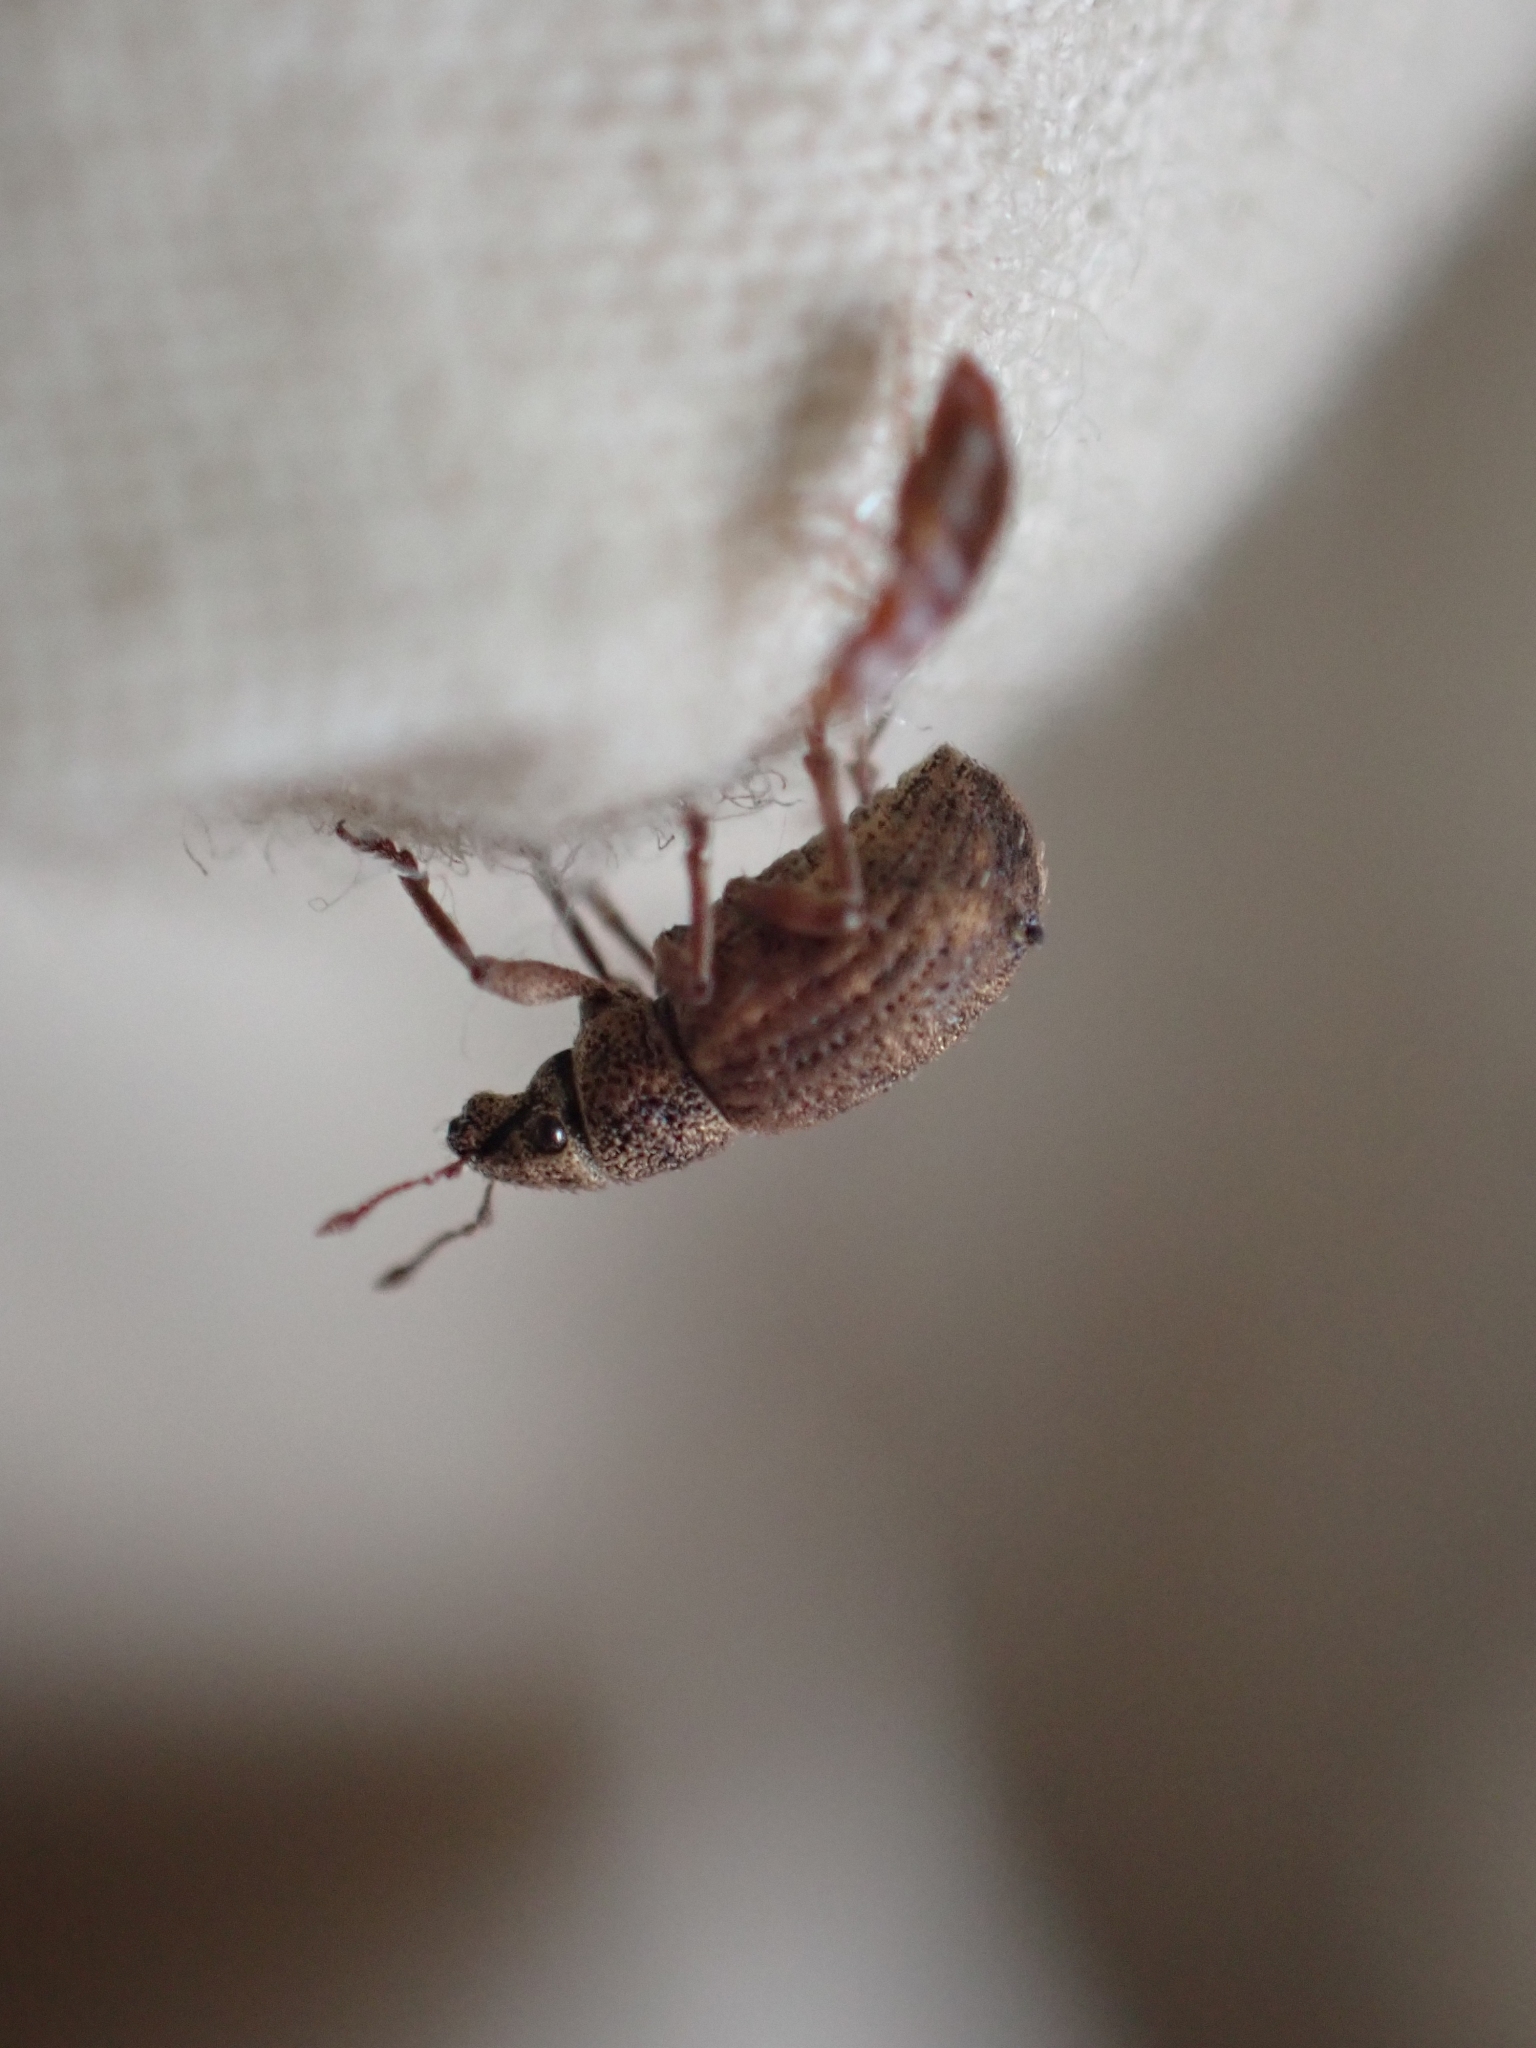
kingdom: Animalia
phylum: Arthropoda
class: Insecta
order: Coleoptera
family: Curculionidae
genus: Strophosoma
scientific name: Strophosoma melanogrammum
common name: Weevil
